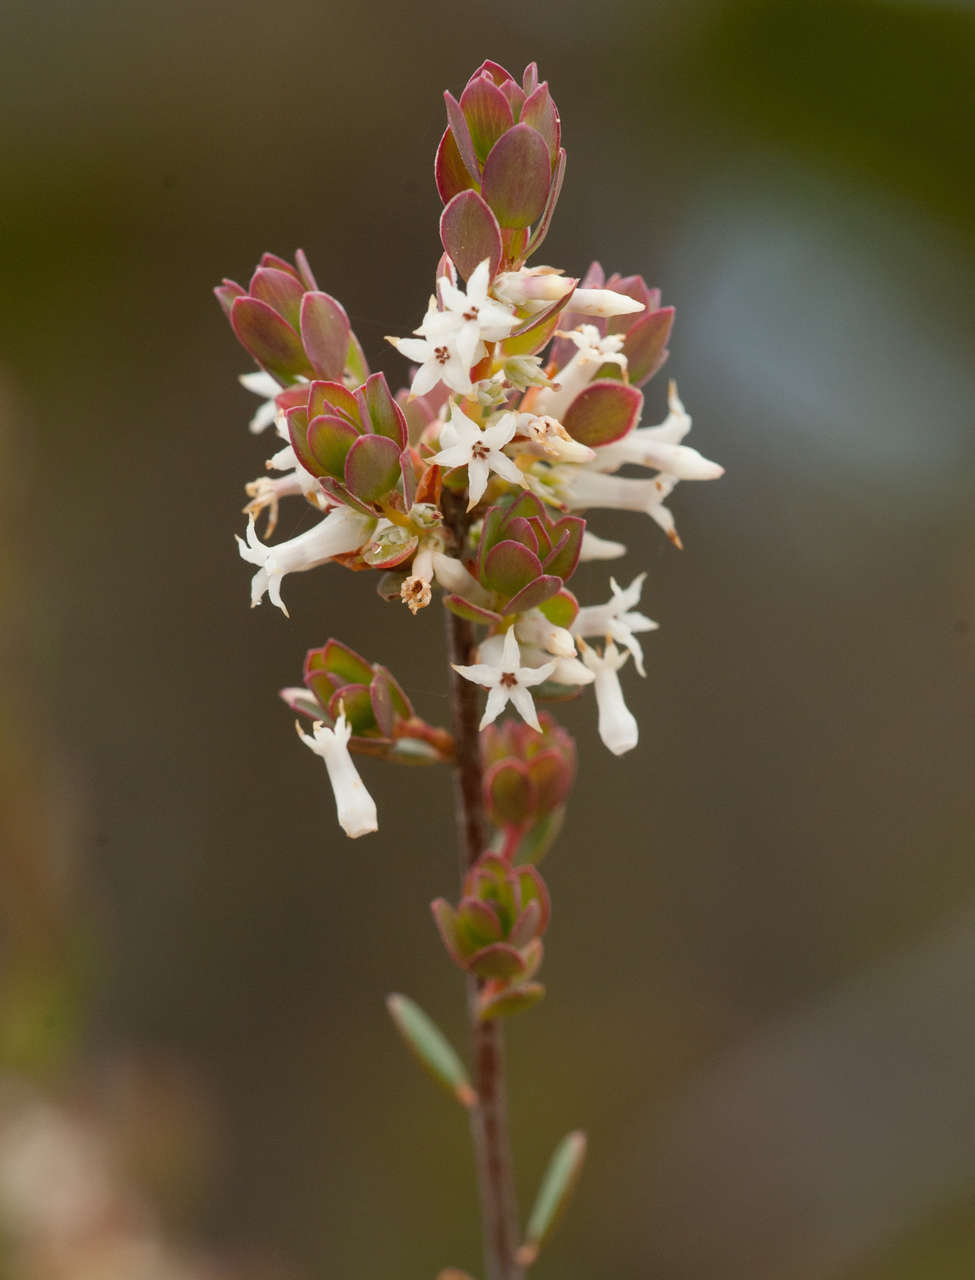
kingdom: Plantae
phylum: Tracheophyta
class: Magnoliopsida
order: Ericales
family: Ericaceae
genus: Brachyloma
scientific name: Brachyloma daphnoides
